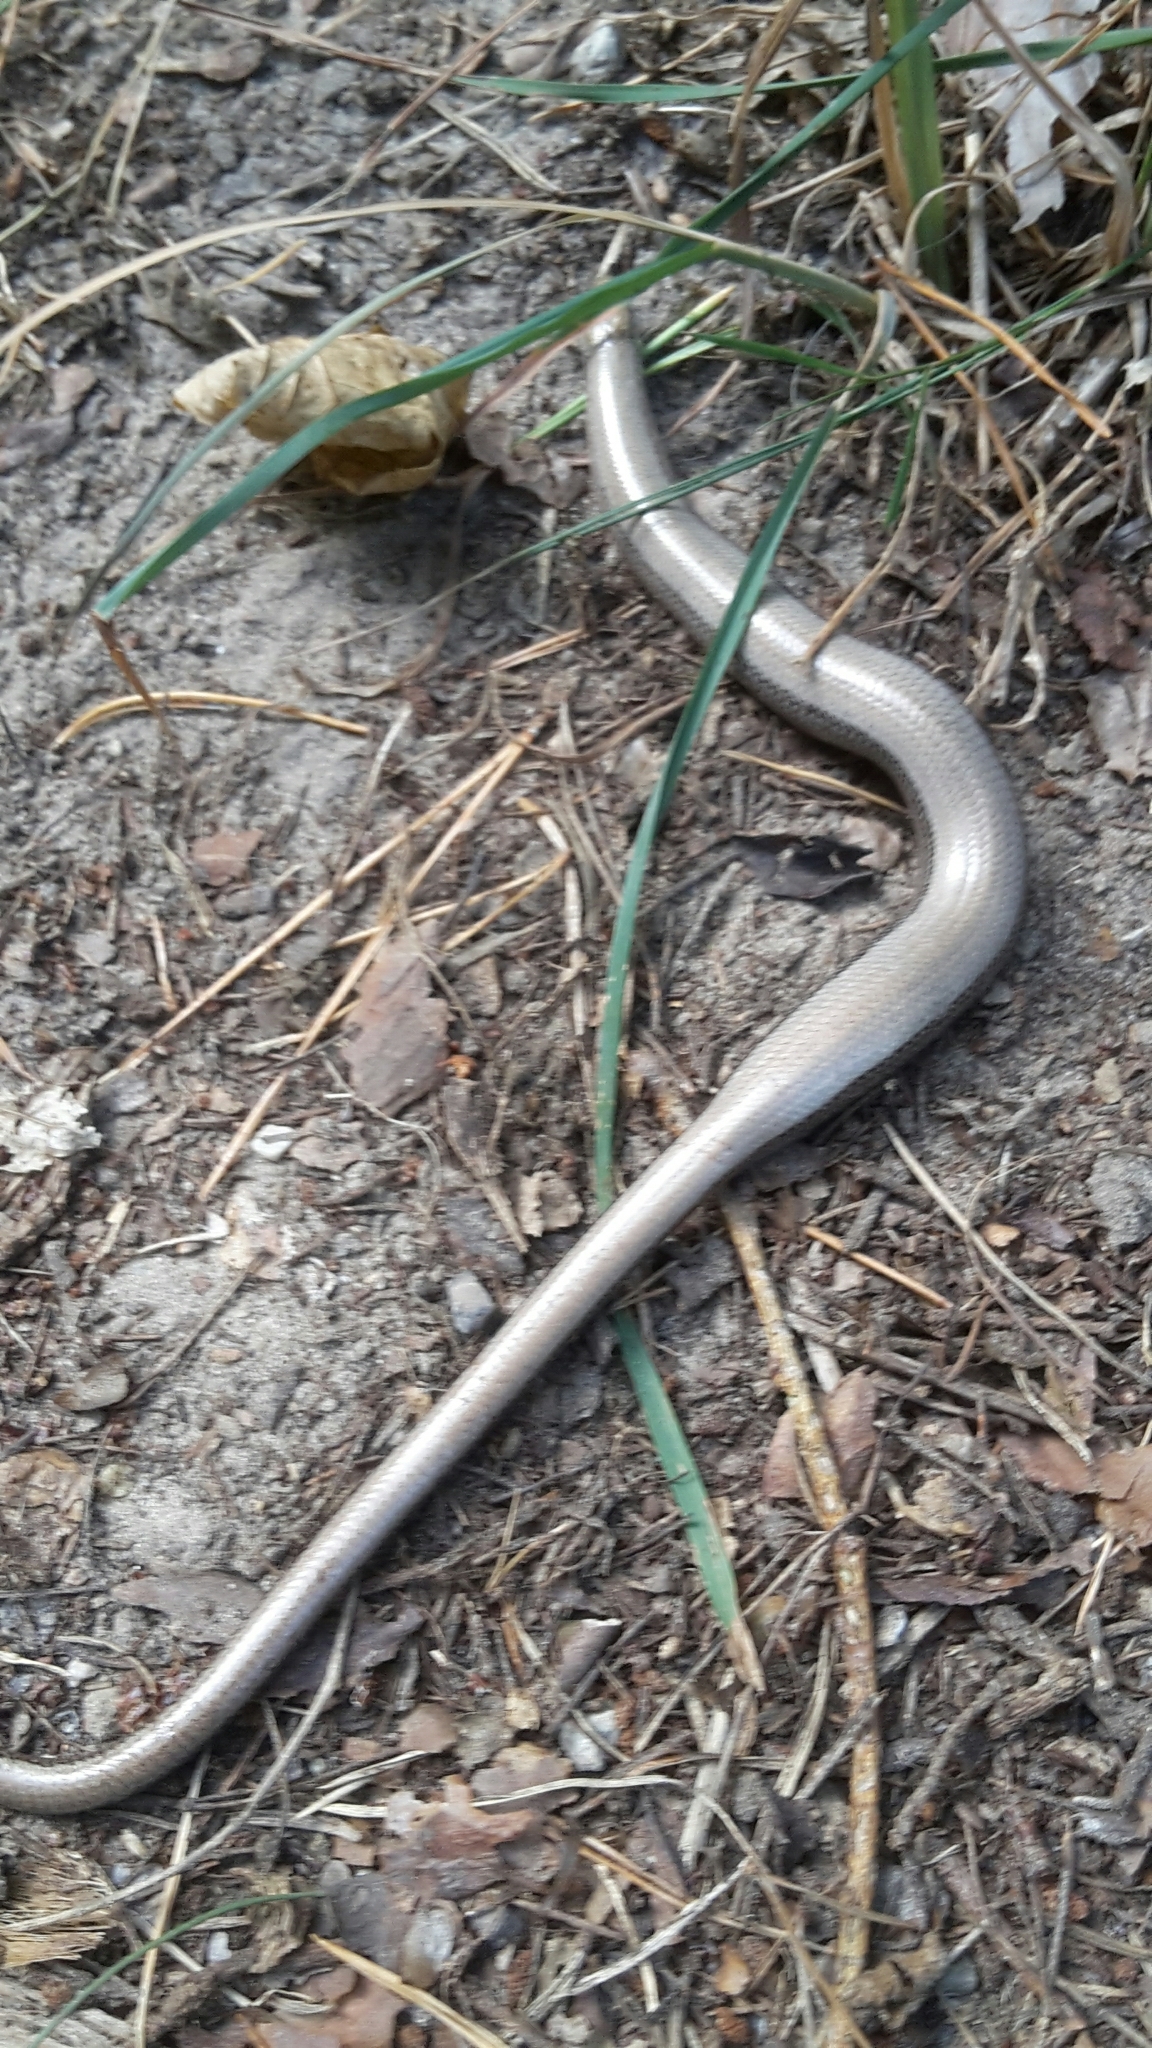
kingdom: Animalia
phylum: Chordata
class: Squamata
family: Anguidae
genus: Anguis
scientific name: Anguis fragilis
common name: Slow worm
